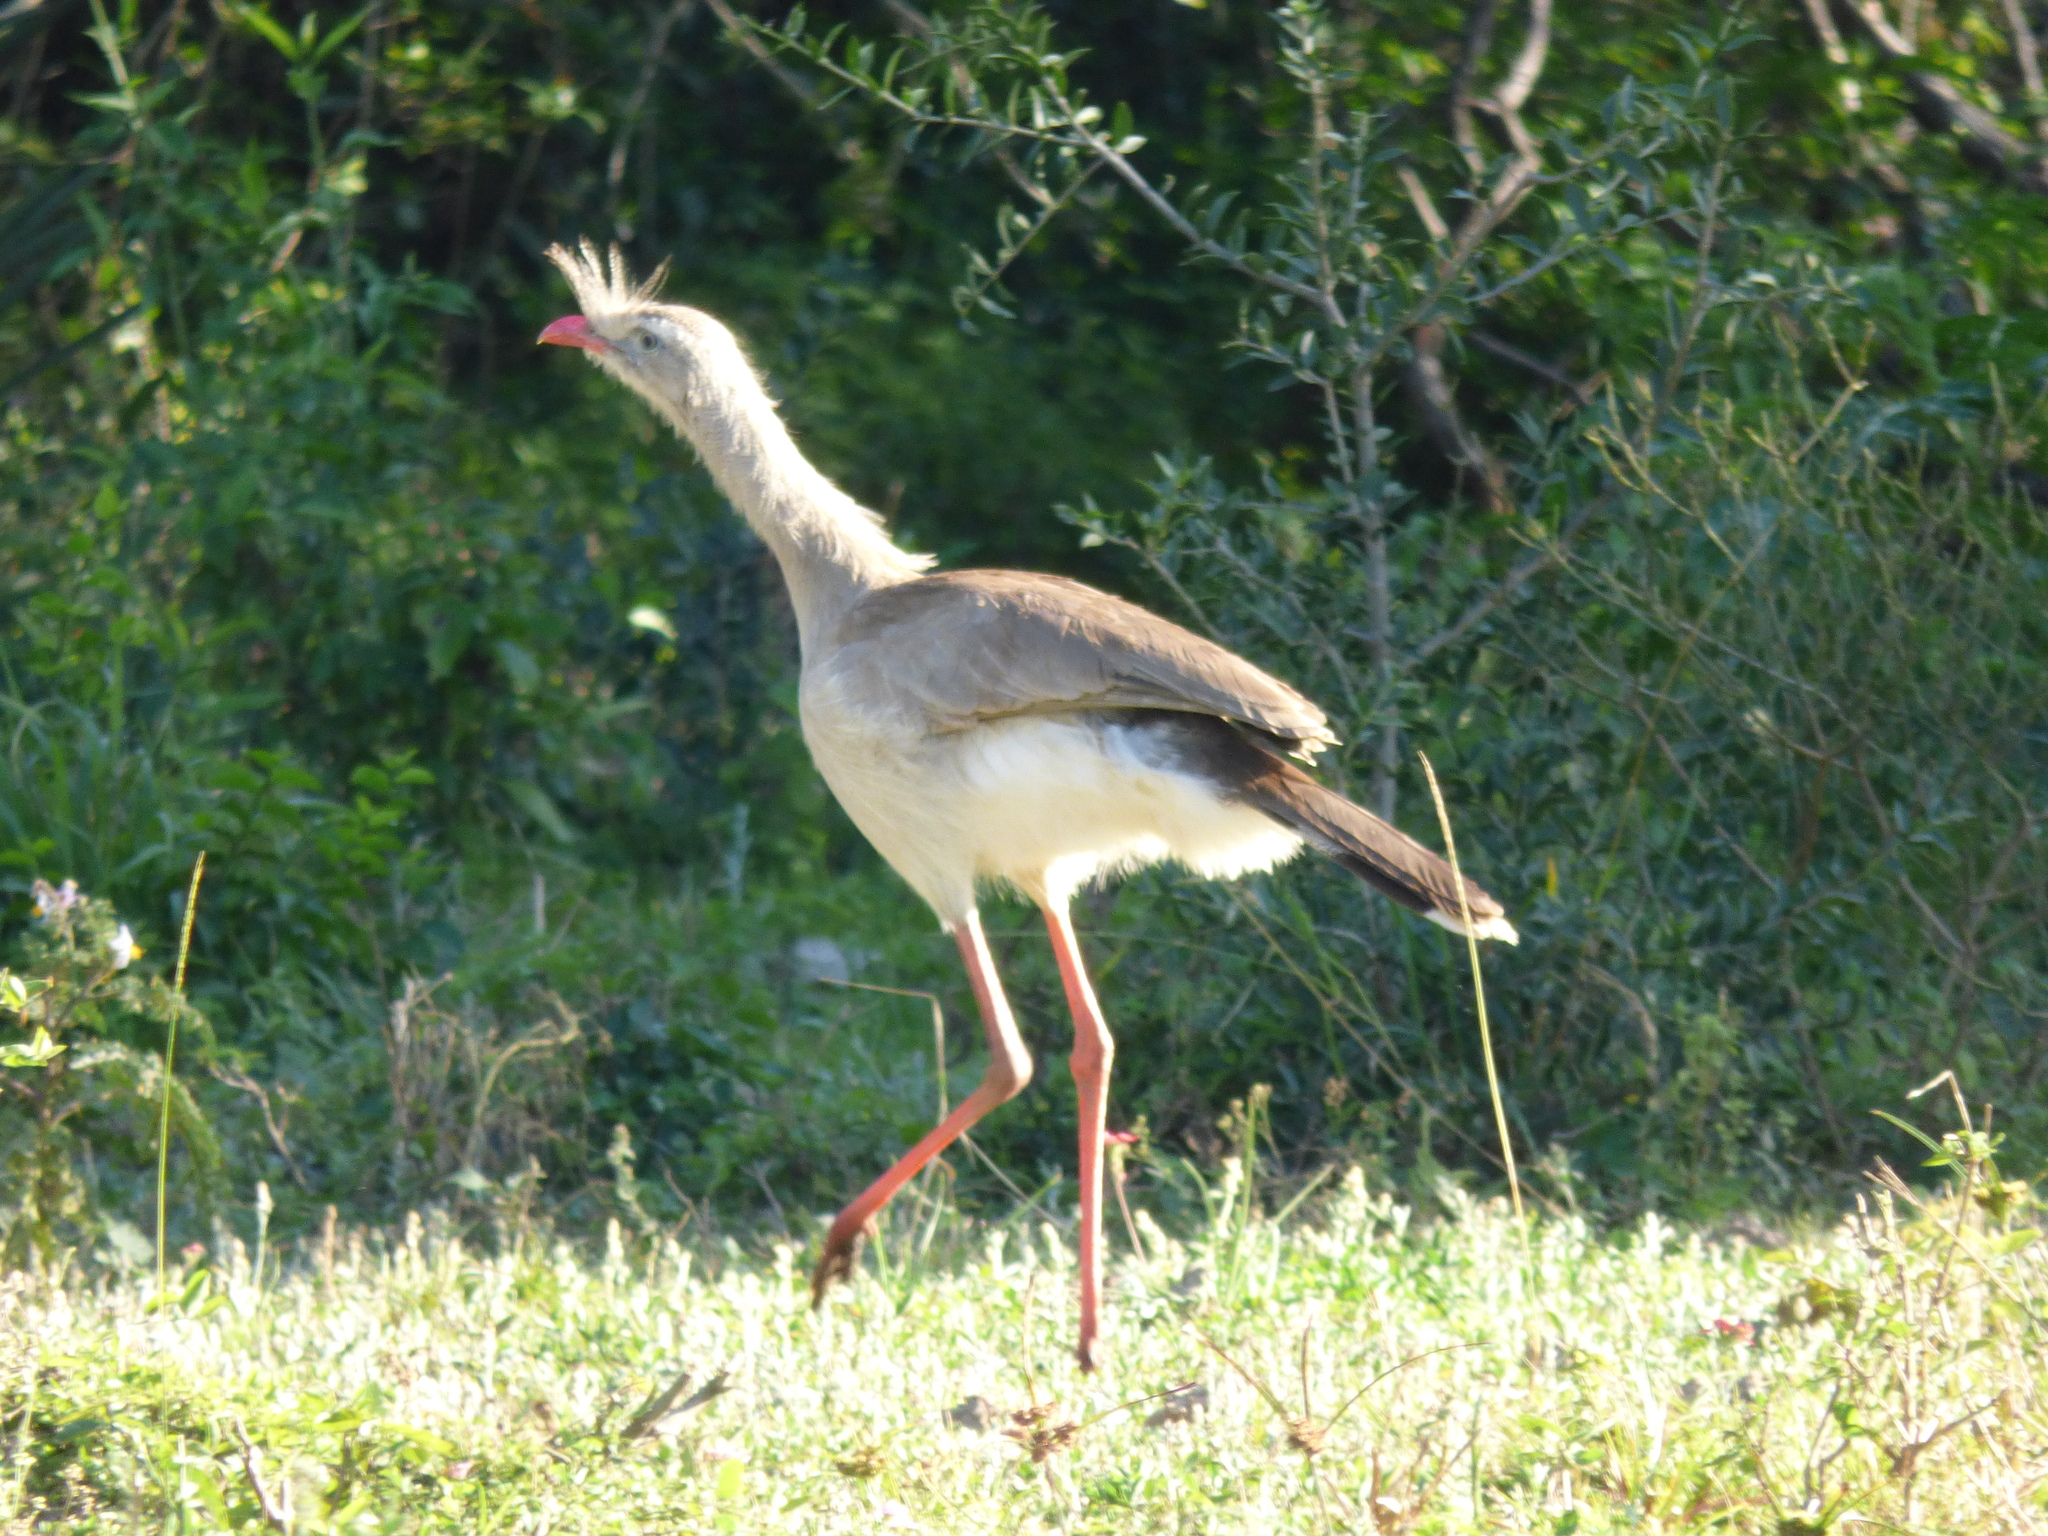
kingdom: Animalia
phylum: Chordata
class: Aves
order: Cariamiformes
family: Cariamidae
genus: Cariama
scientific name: Cariama cristata
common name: Red-legged seriema
